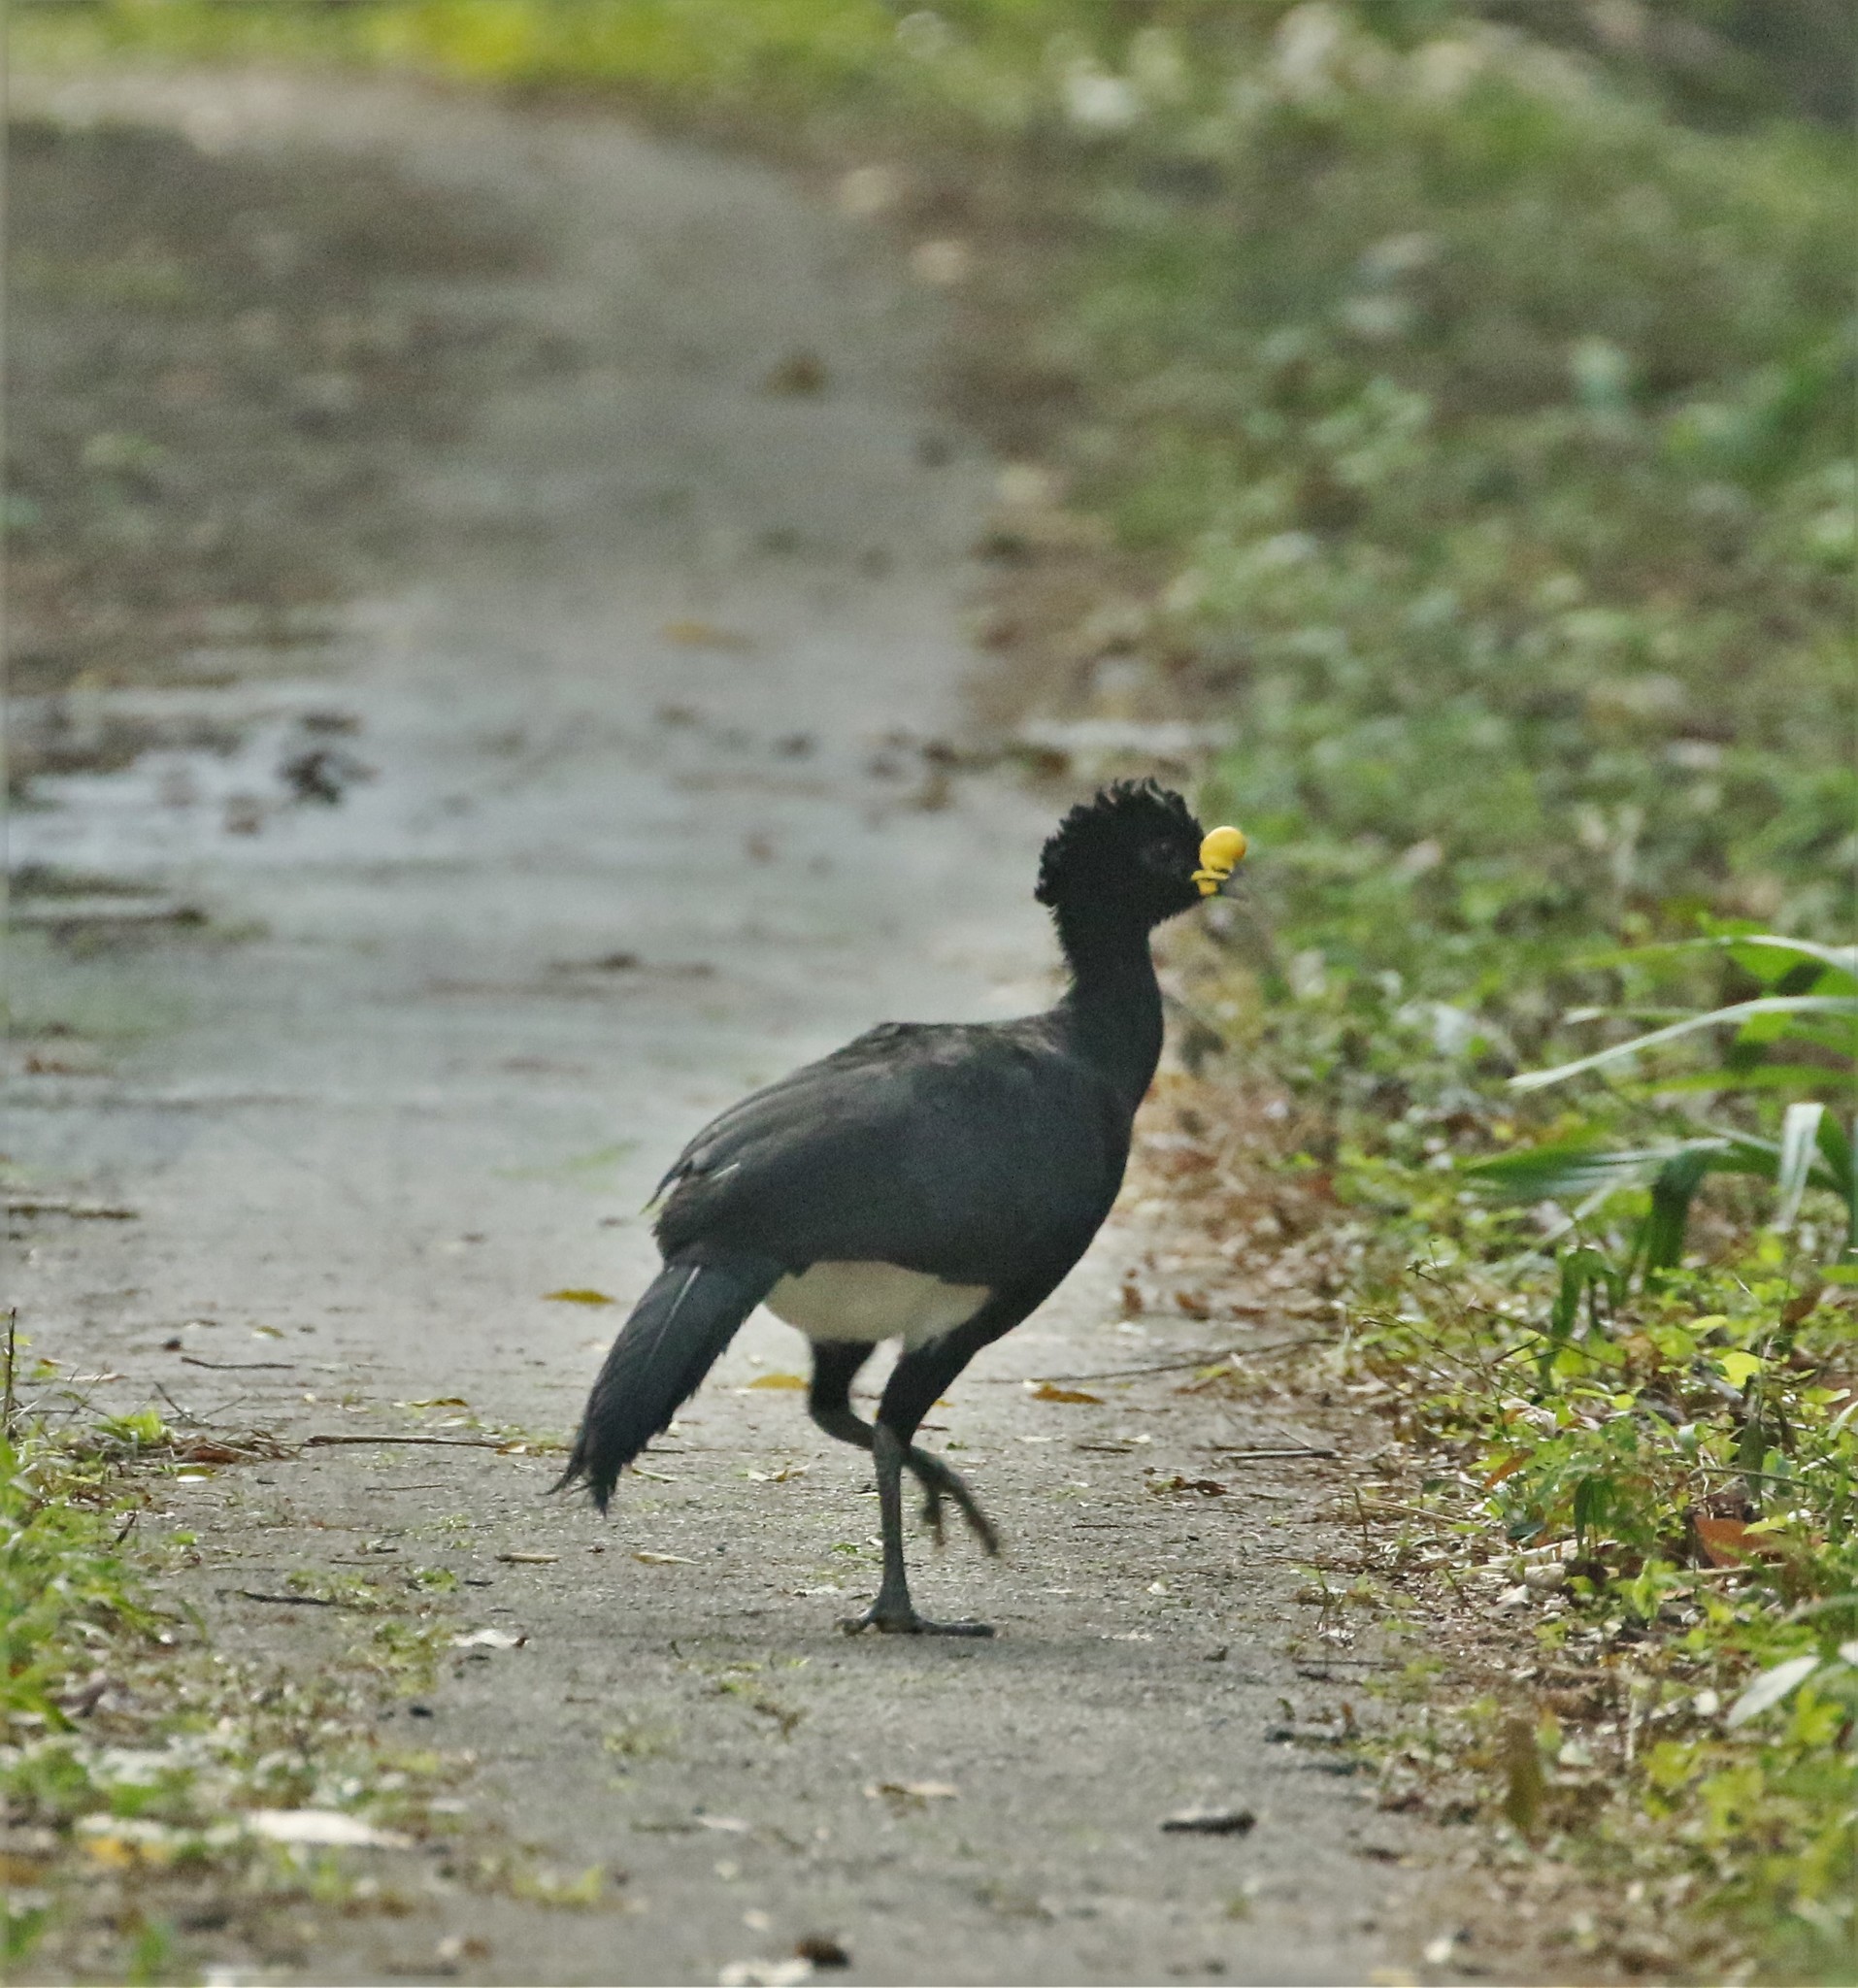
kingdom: Animalia
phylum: Chordata
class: Aves
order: Galliformes
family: Cracidae
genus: Crax
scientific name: Crax rubra
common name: Great curassow
